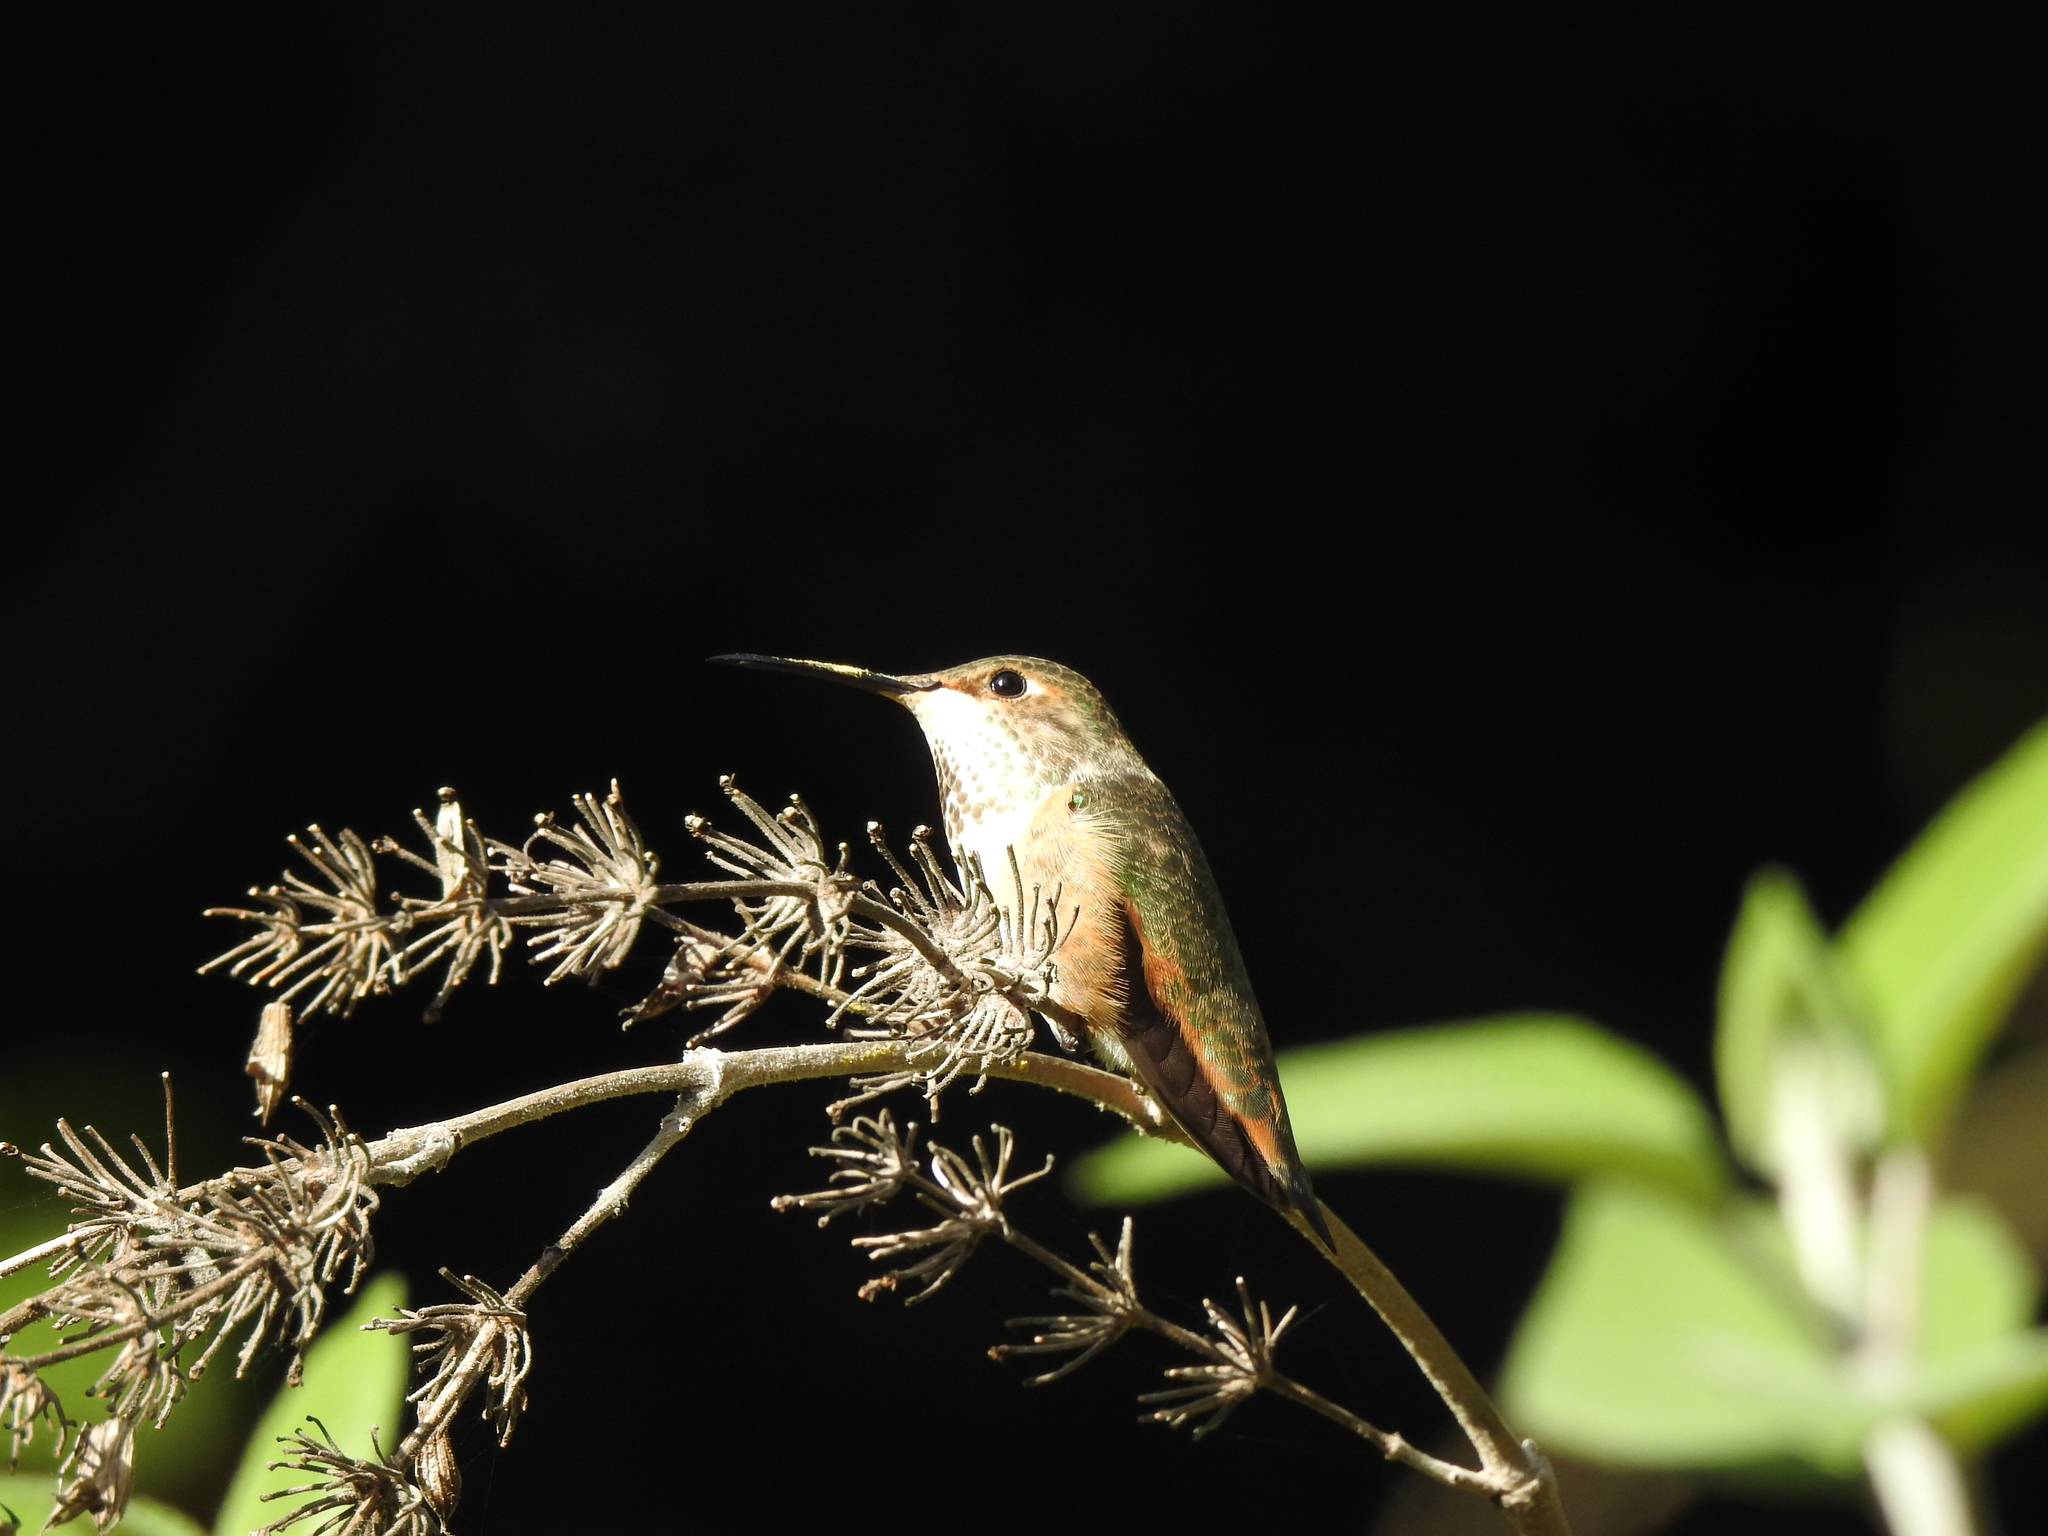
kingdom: Animalia
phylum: Chordata
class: Aves
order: Apodiformes
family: Trochilidae
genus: Selasphorus
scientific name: Selasphorus sasin
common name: Allen's hummingbird
